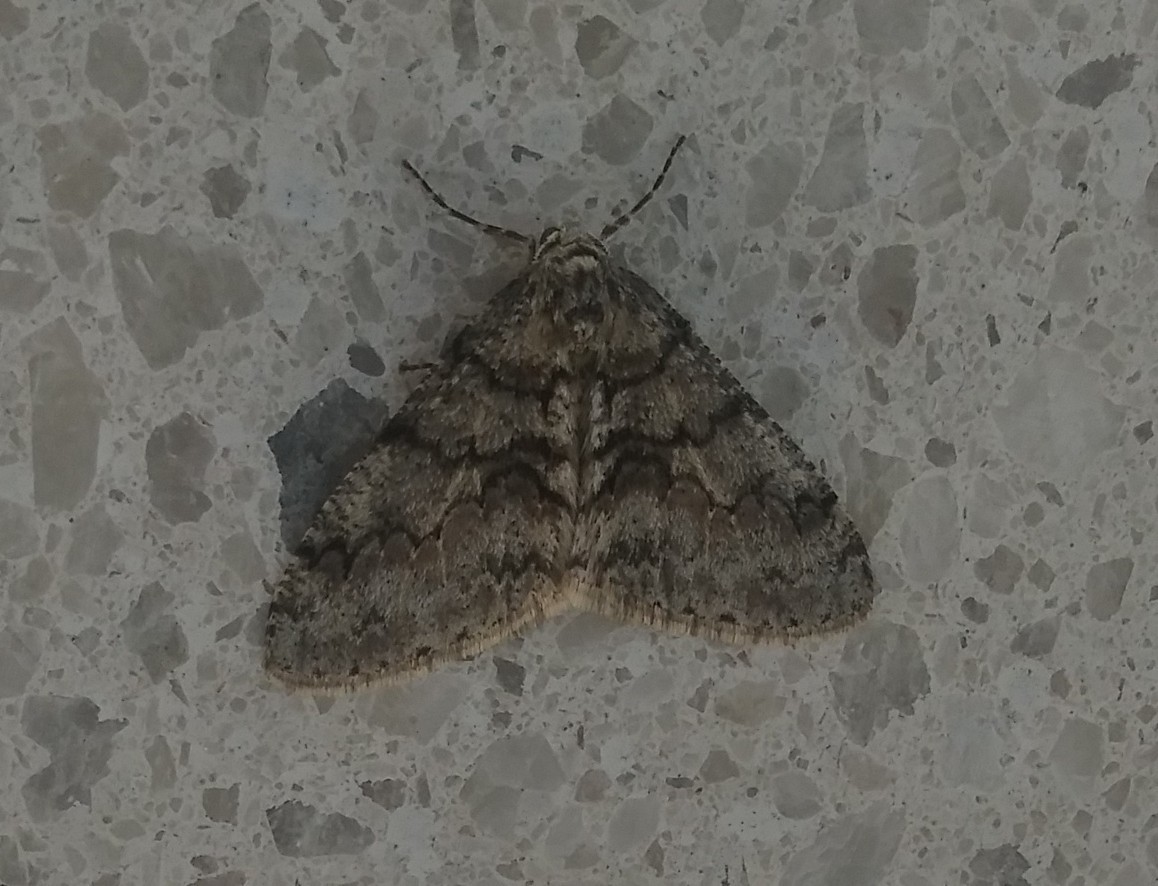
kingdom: Animalia
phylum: Arthropoda
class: Insecta
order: Lepidoptera
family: Geometridae
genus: Phigalia
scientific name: Phigalia denticulata
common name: Toothed phigalia
